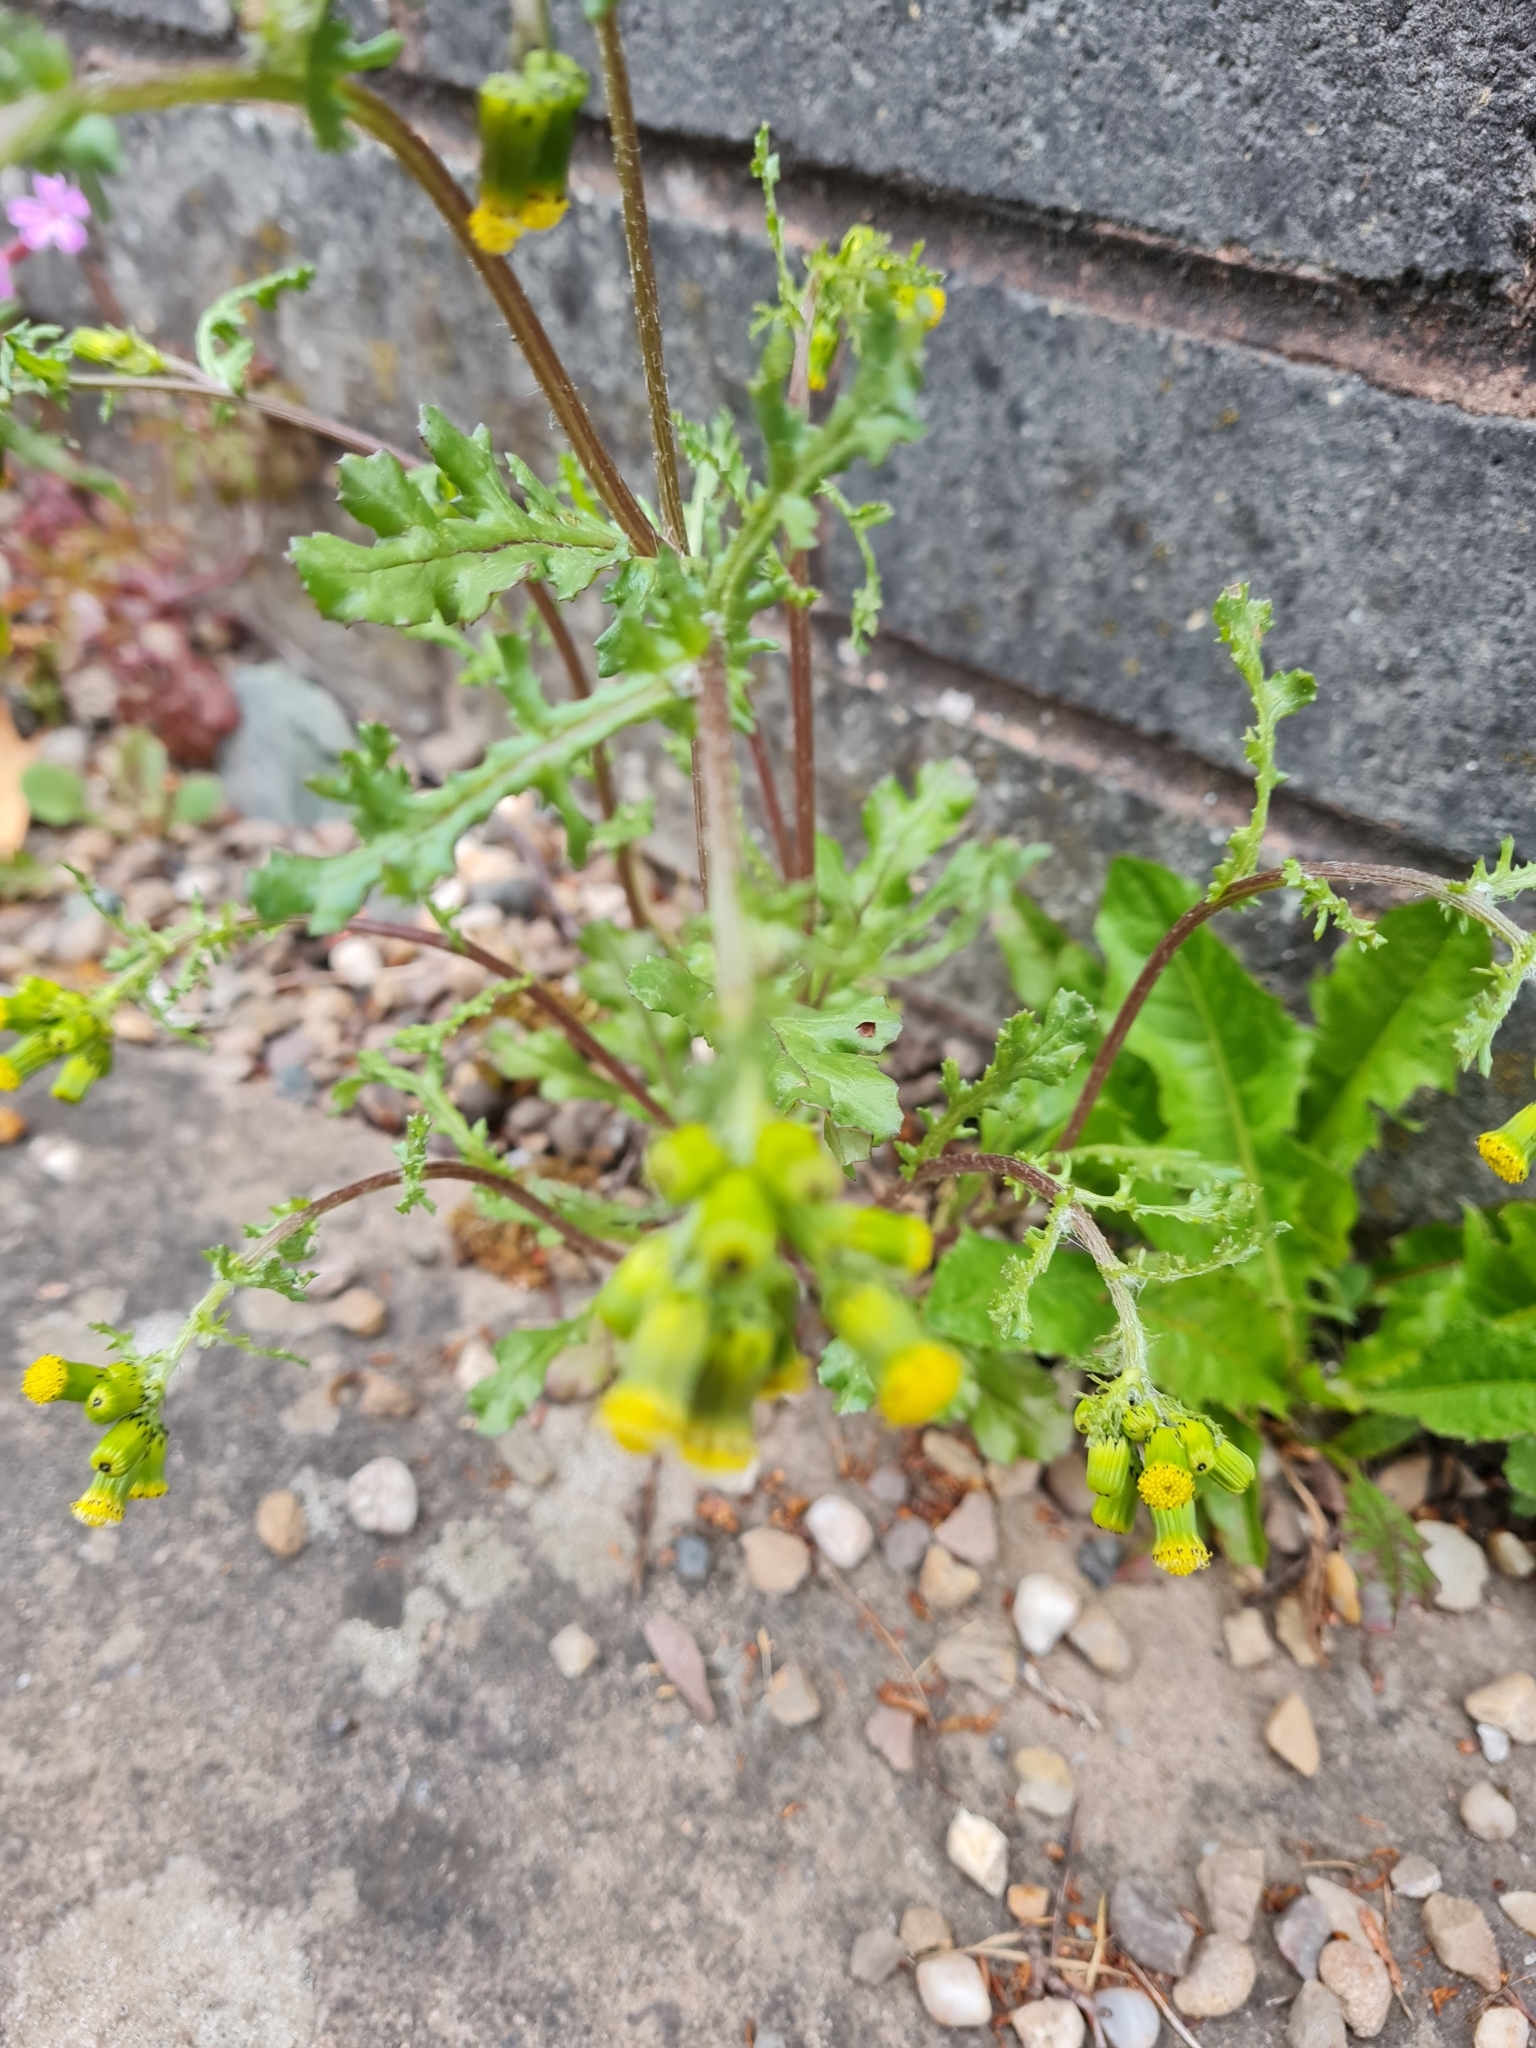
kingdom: Plantae
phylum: Tracheophyta
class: Magnoliopsida
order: Asterales
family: Asteraceae
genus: Senecio
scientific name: Senecio vulgaris
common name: Old-man-in-the-spring
